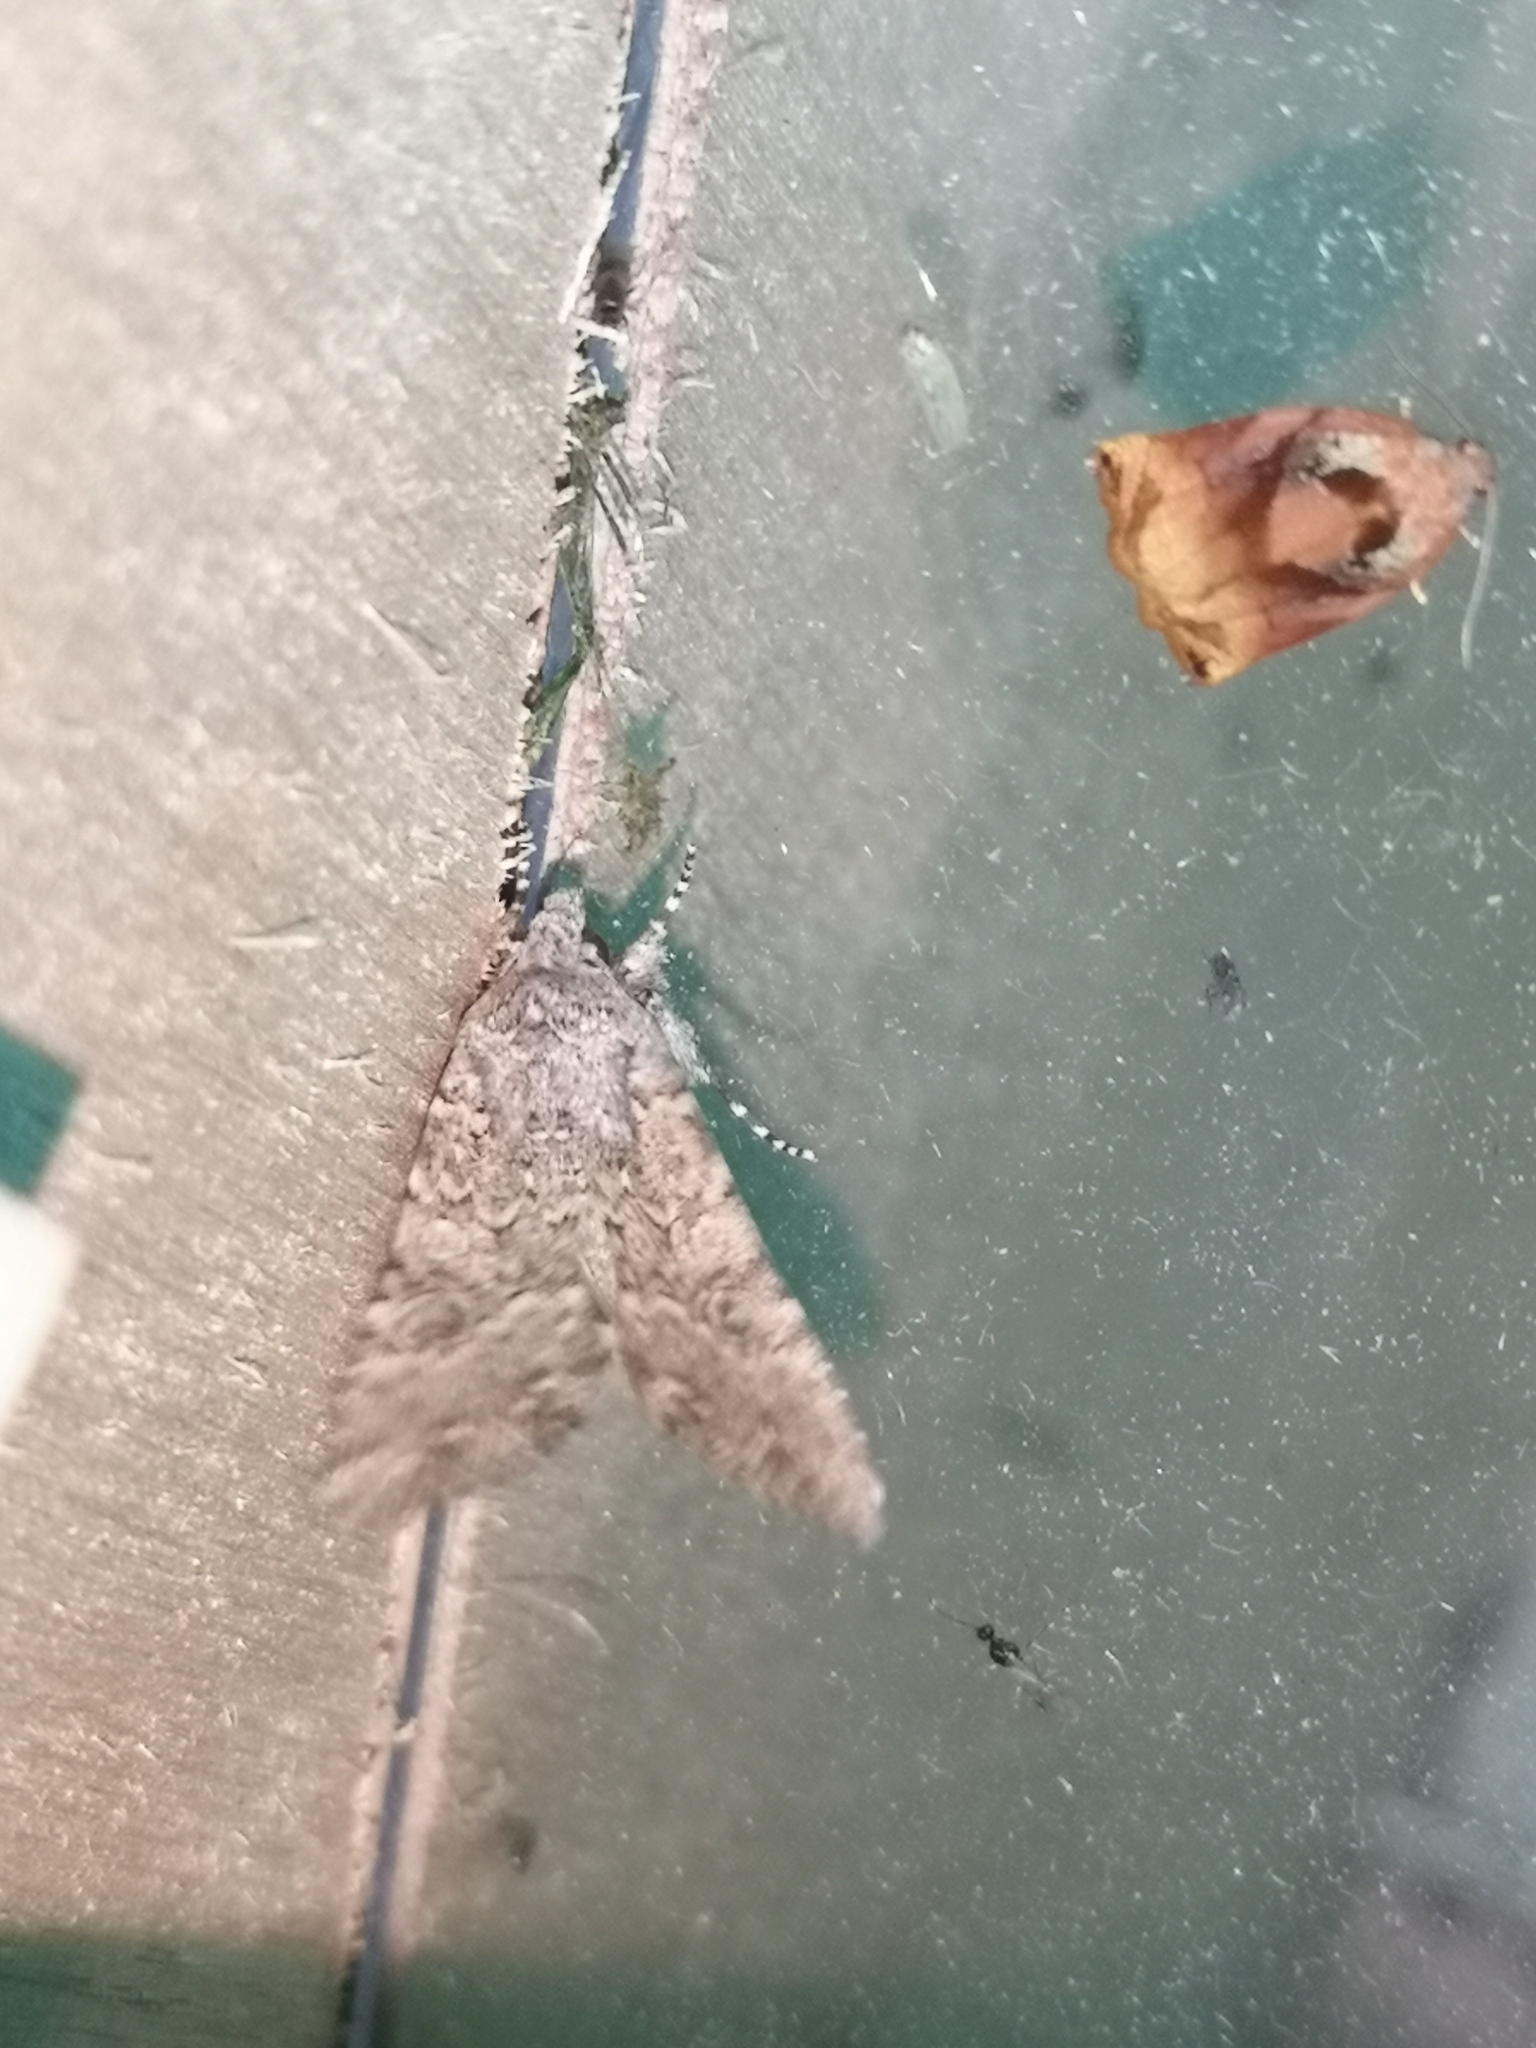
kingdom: Animalia
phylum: Arthropoda
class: Insecta
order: Lepidoptera
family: Noctuidae
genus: Anarta
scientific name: Anarta trifolii
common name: Clover cutworm moth
